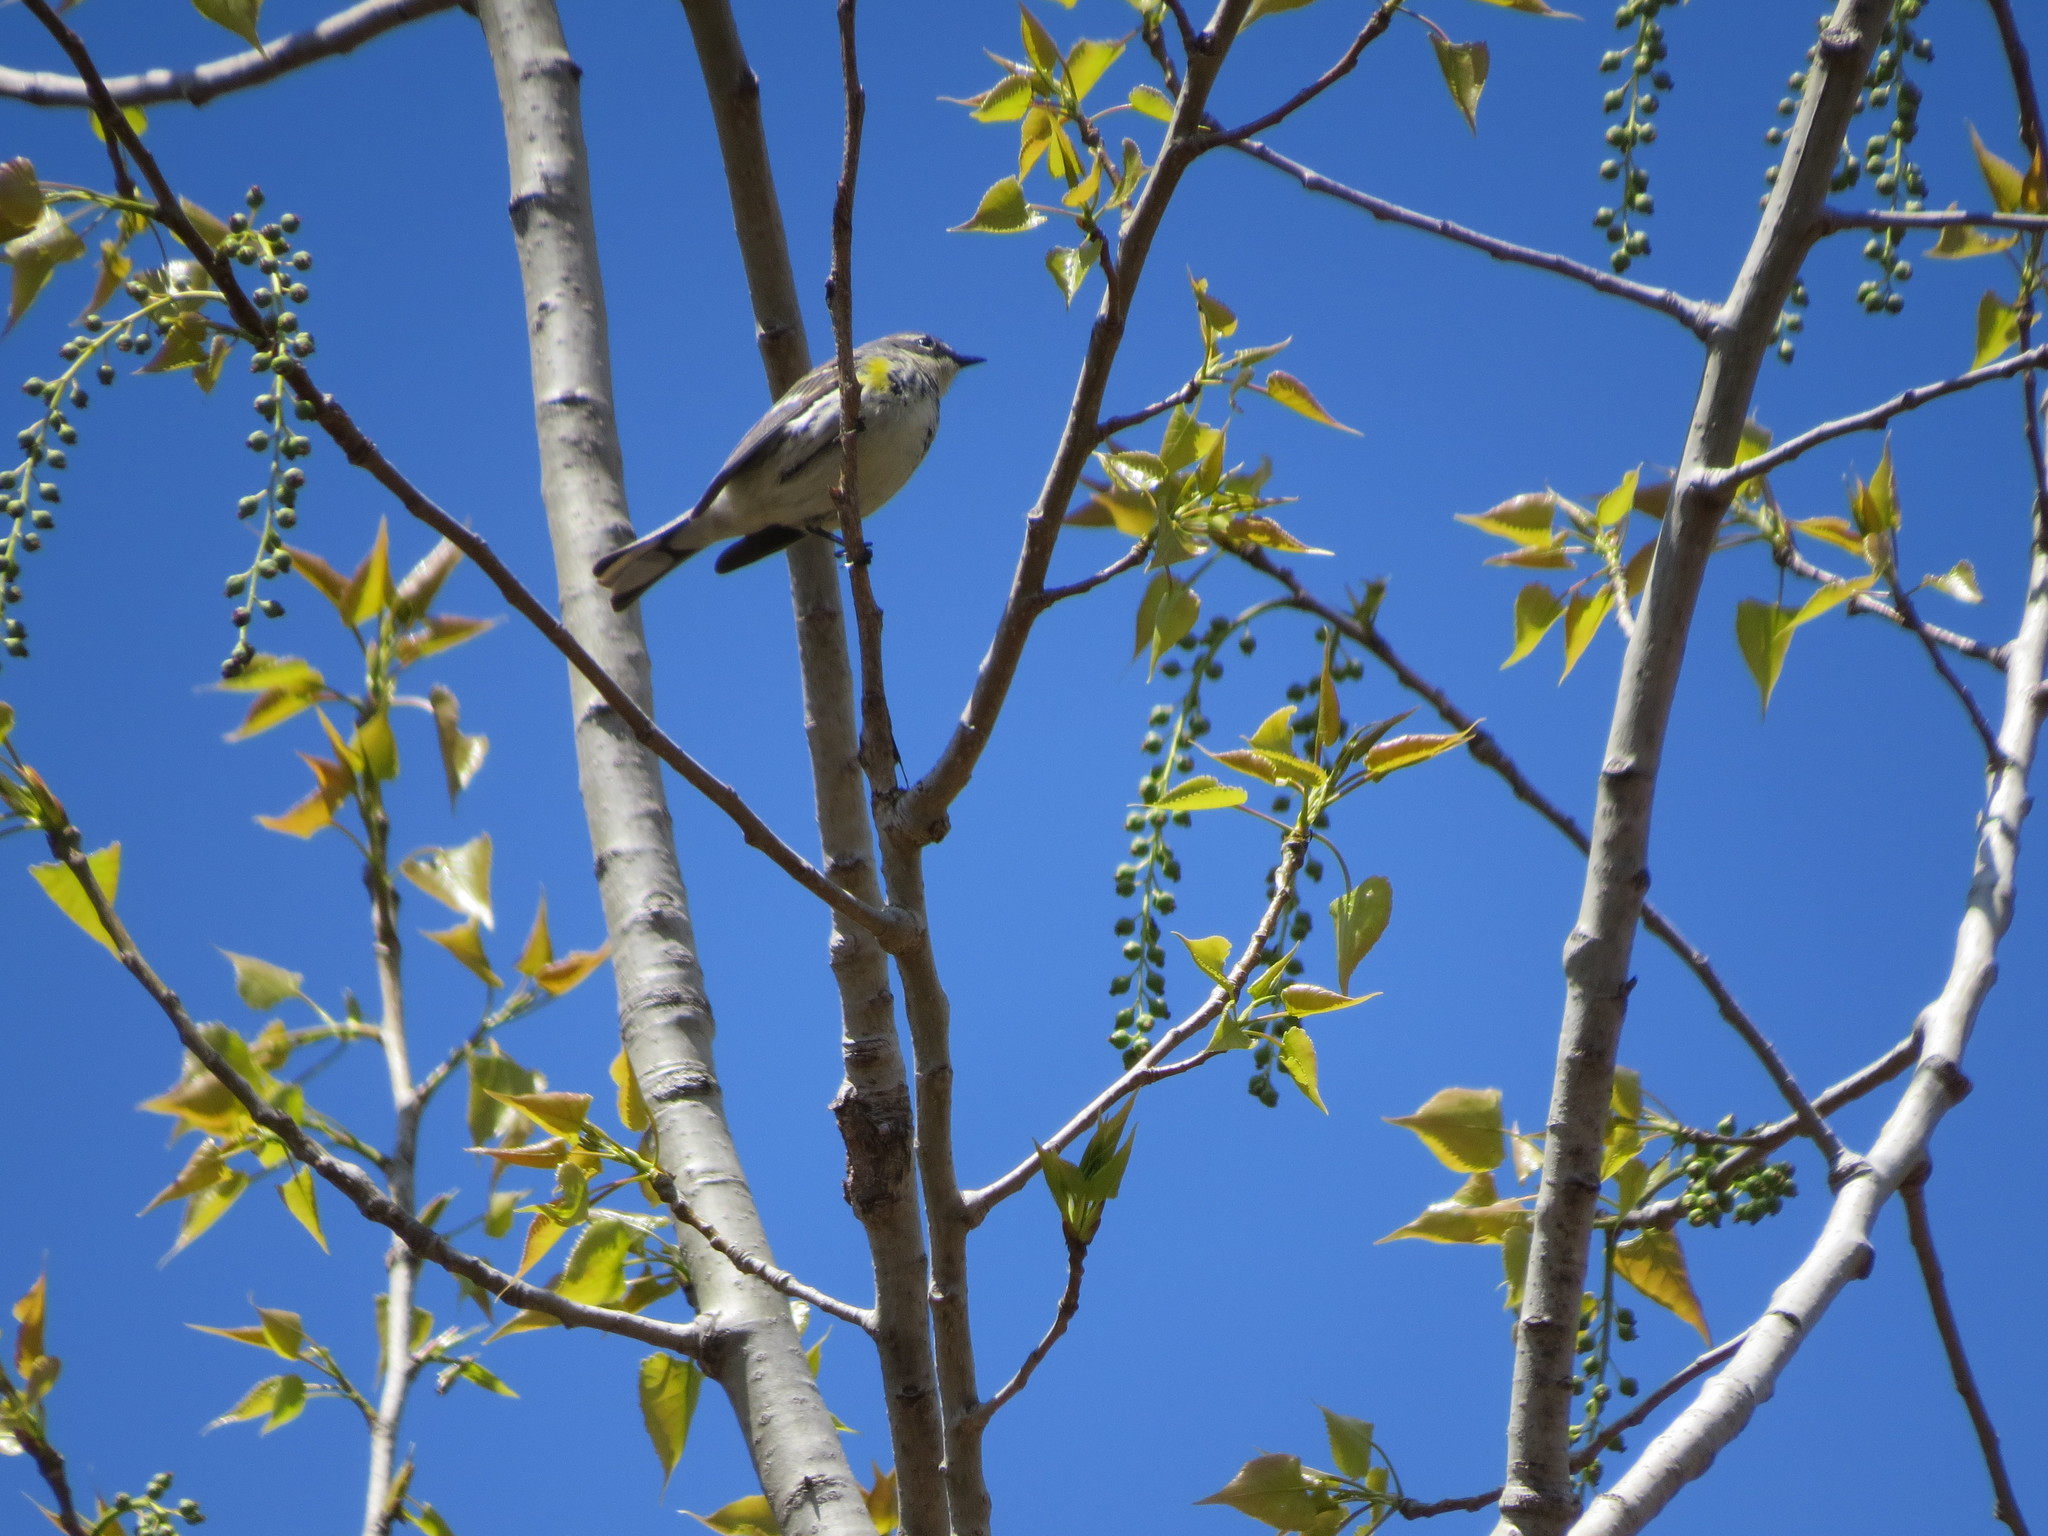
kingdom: Animalia
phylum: Chordata
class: Aves
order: Passeriformes
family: Parulidae
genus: Setophaga
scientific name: Setophaga coronata
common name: Myrtle warbler
